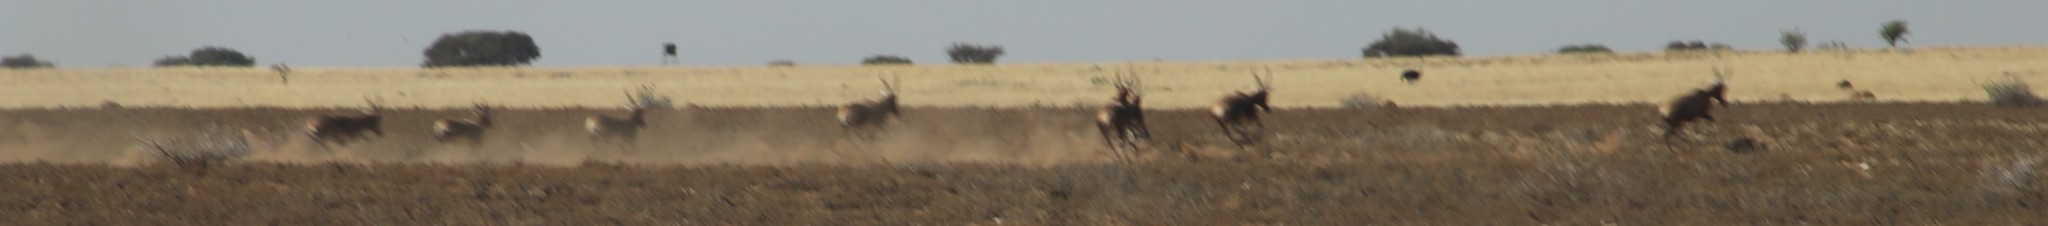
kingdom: Animalia
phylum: Chordata
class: Mammalia
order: Artiodactyla
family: Bovidae
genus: Damaliscus
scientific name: Damaliscus pygargus
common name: Bontebok
